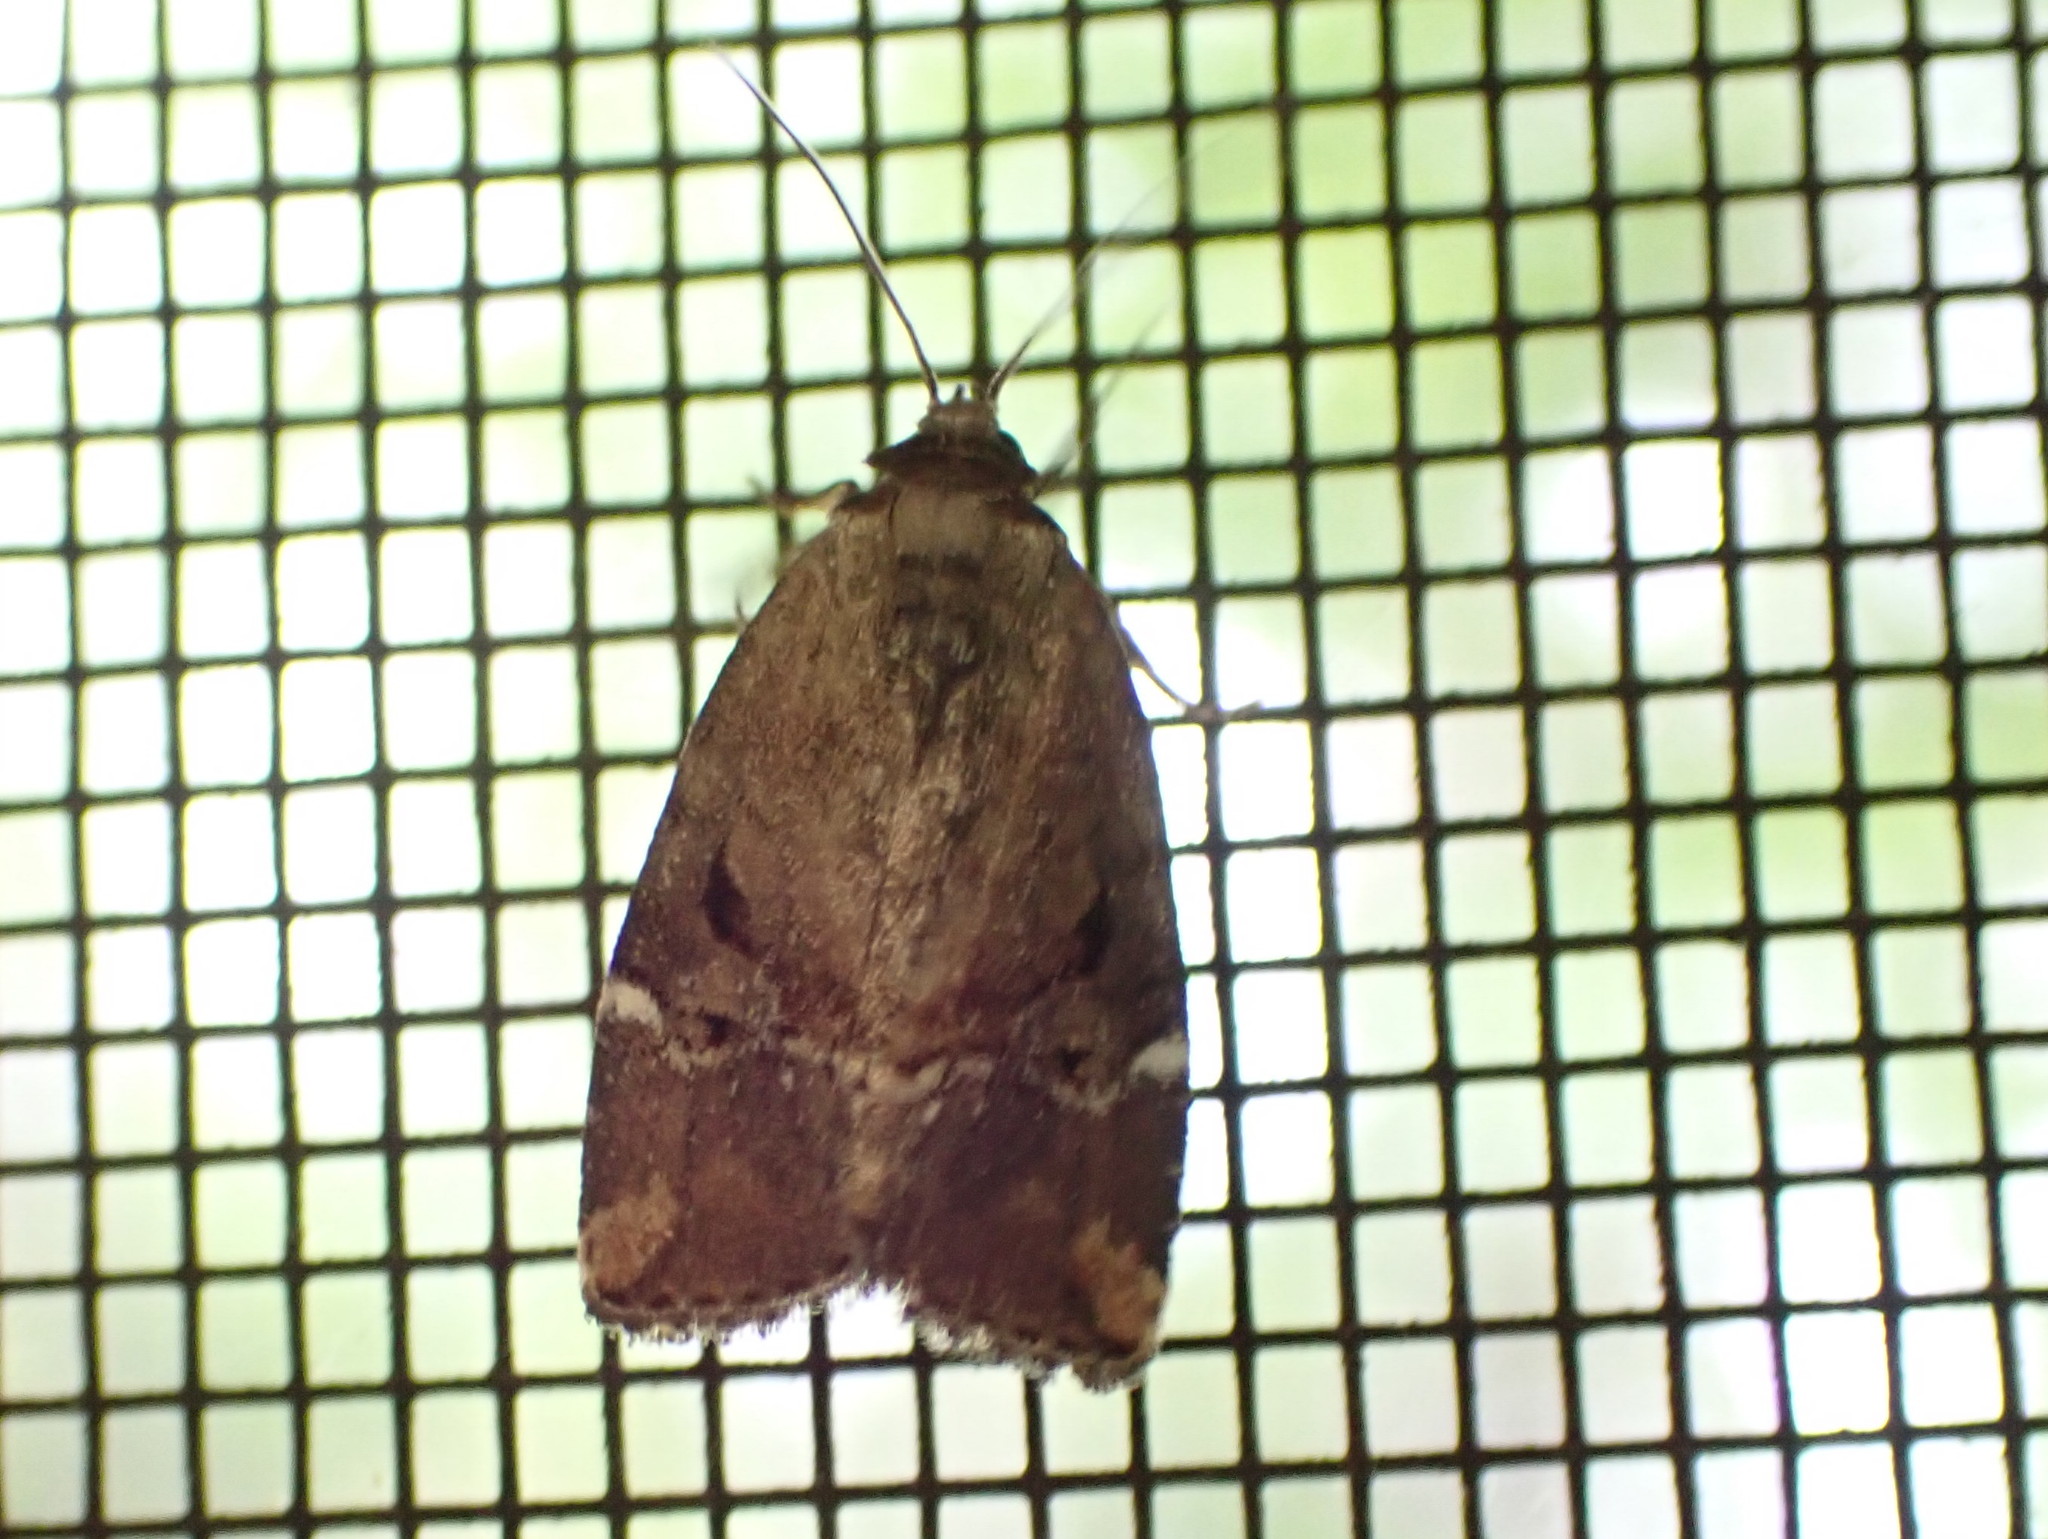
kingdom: Animalia
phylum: Arthropoda
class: Insecta
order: Lepidoptera
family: Noctuidae
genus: Elaphria
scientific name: Elaphria versicolor
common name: Fir harlequin
